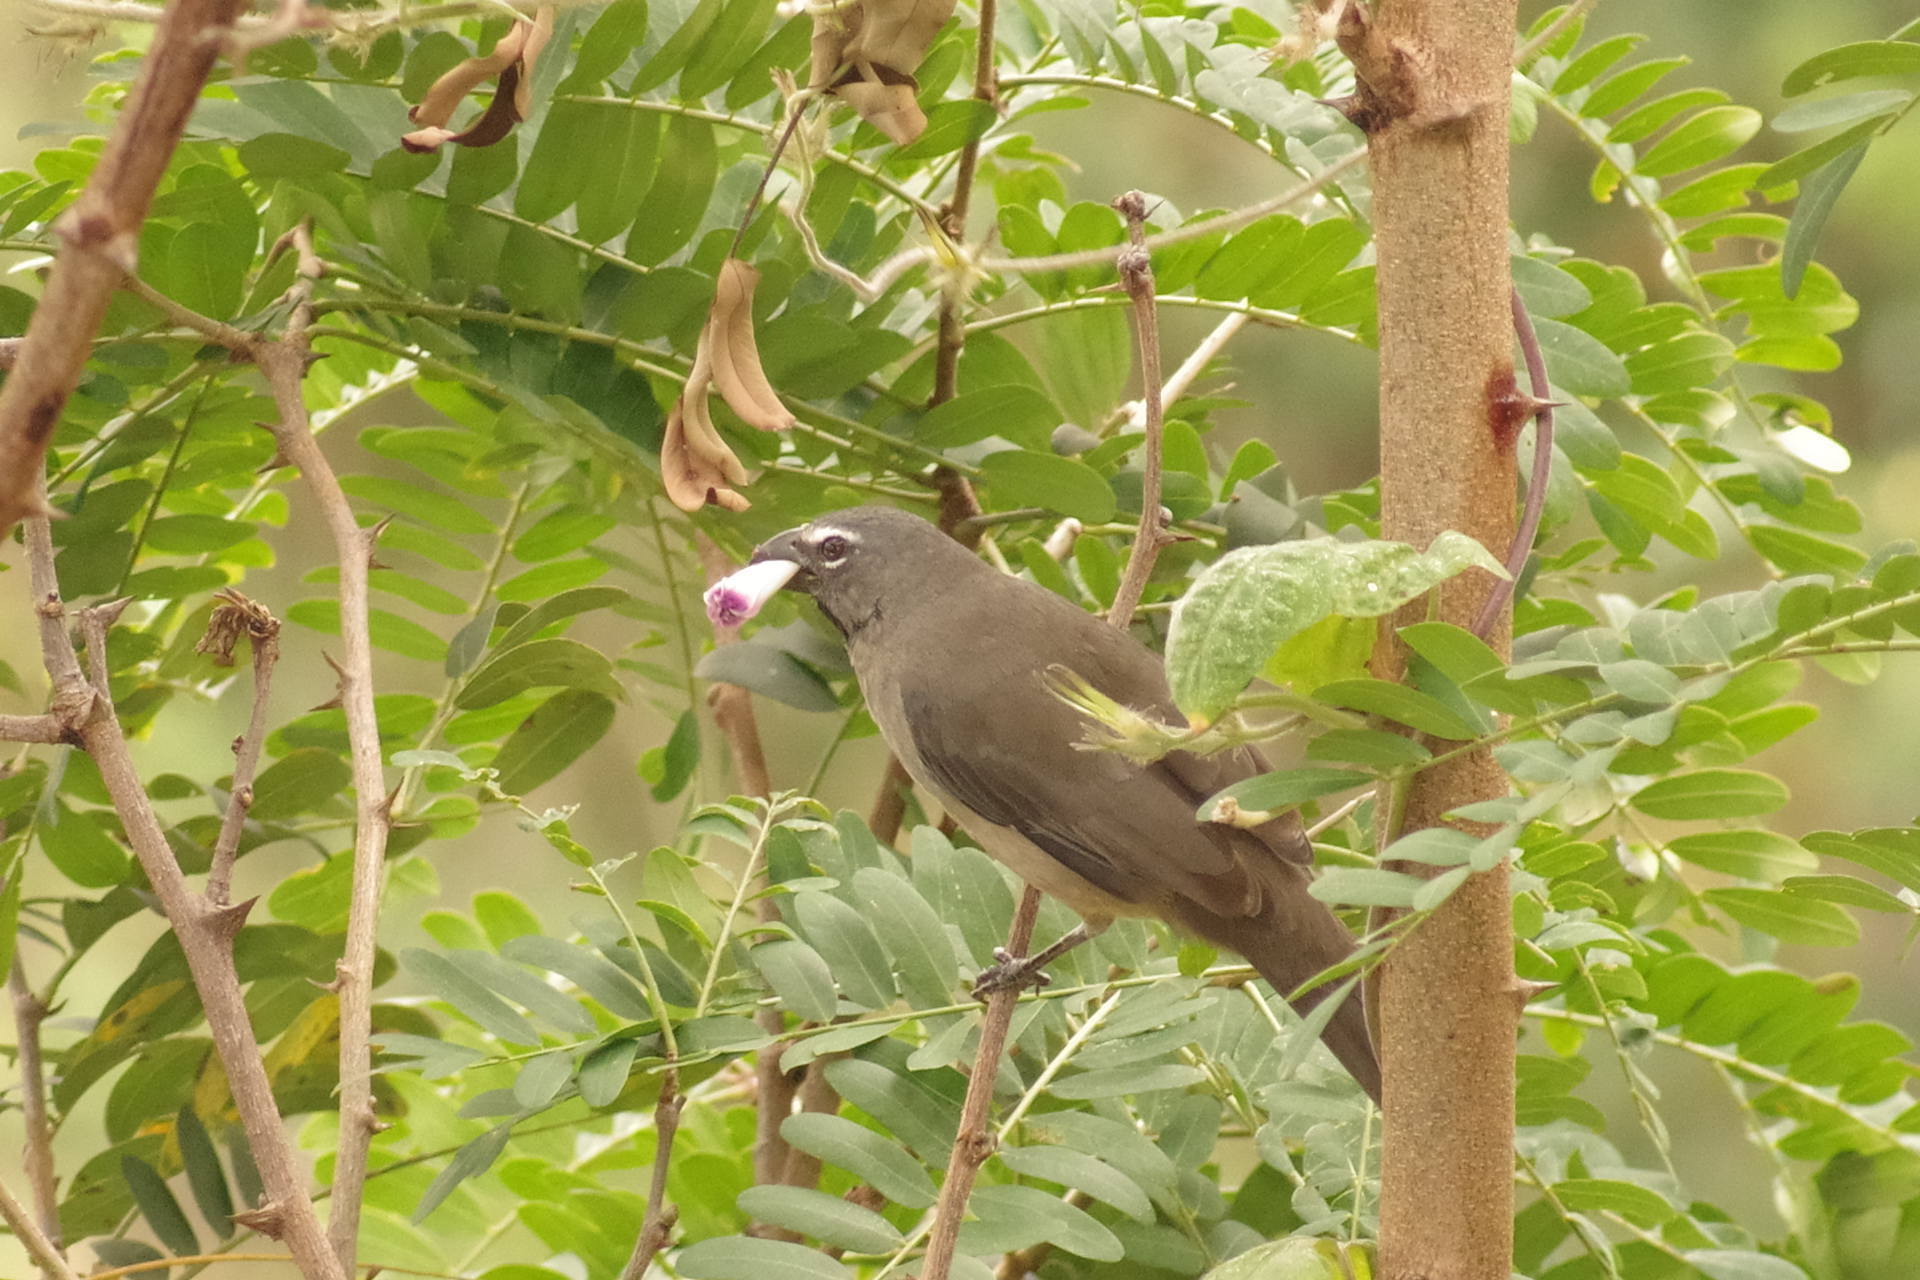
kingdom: Animalia
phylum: Chordata
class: Aves
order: Passeriformes
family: Thraupidae
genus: Saltator
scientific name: Saltator olivascens
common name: Caribbean grey saltator
